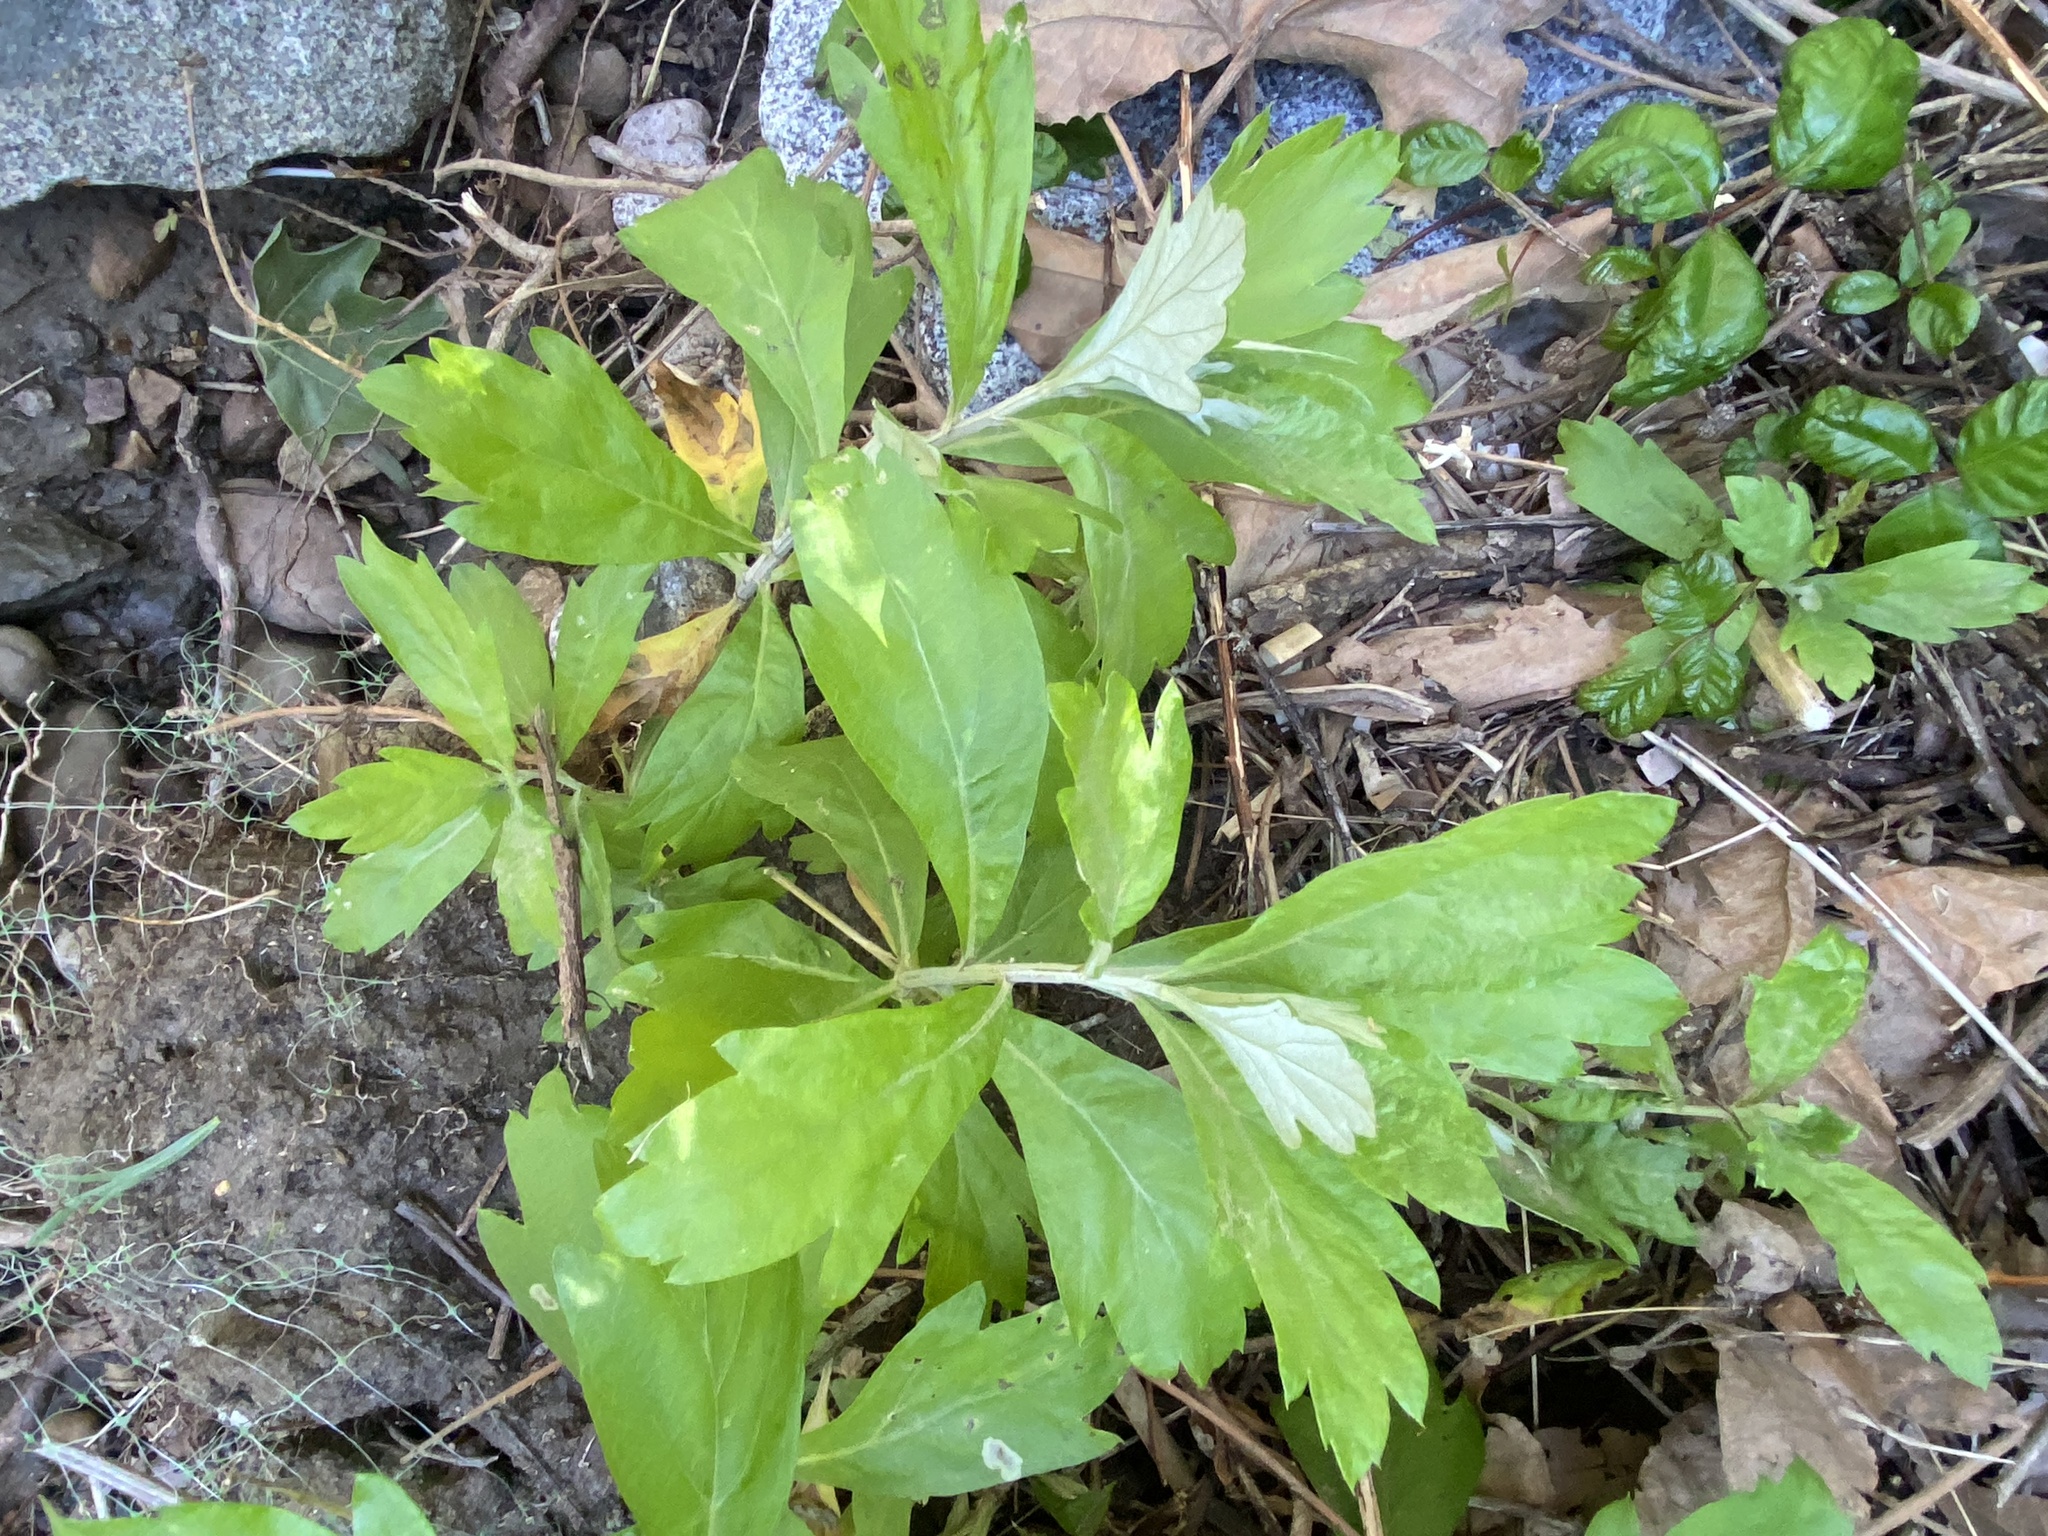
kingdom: Plantae
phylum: Tracheophyta
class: Magnoliopsida
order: Asterales
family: Asteraceae
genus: Artemisia
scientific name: Artemisia douglasiana
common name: Northwest mugwort
